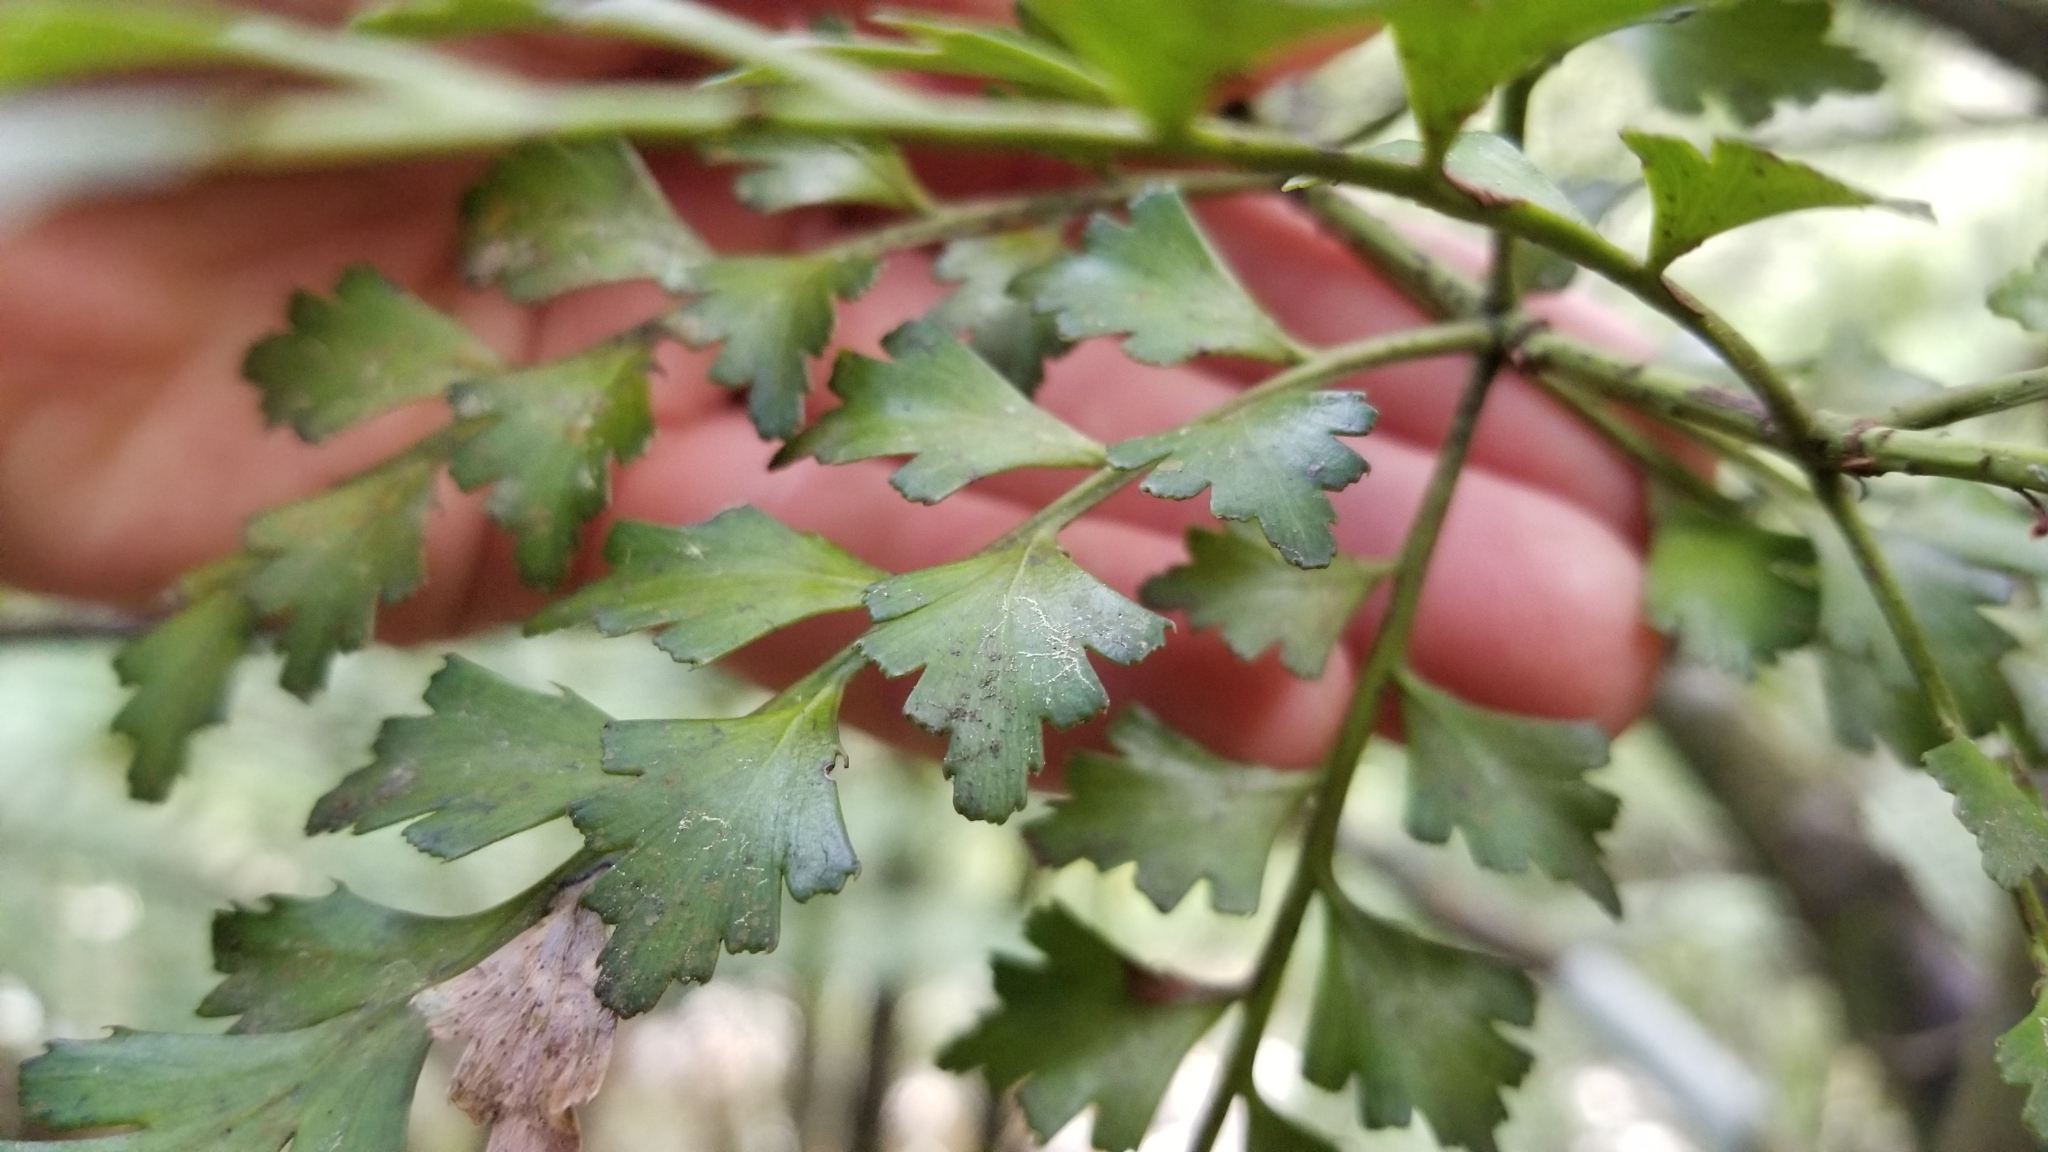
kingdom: Plantae
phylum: Tracheophyta
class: Pinopsida
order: Pinales
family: Phyllocladaceae
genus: Phyllocladus
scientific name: Phyllocladus trichomanoides
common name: Celery pine
